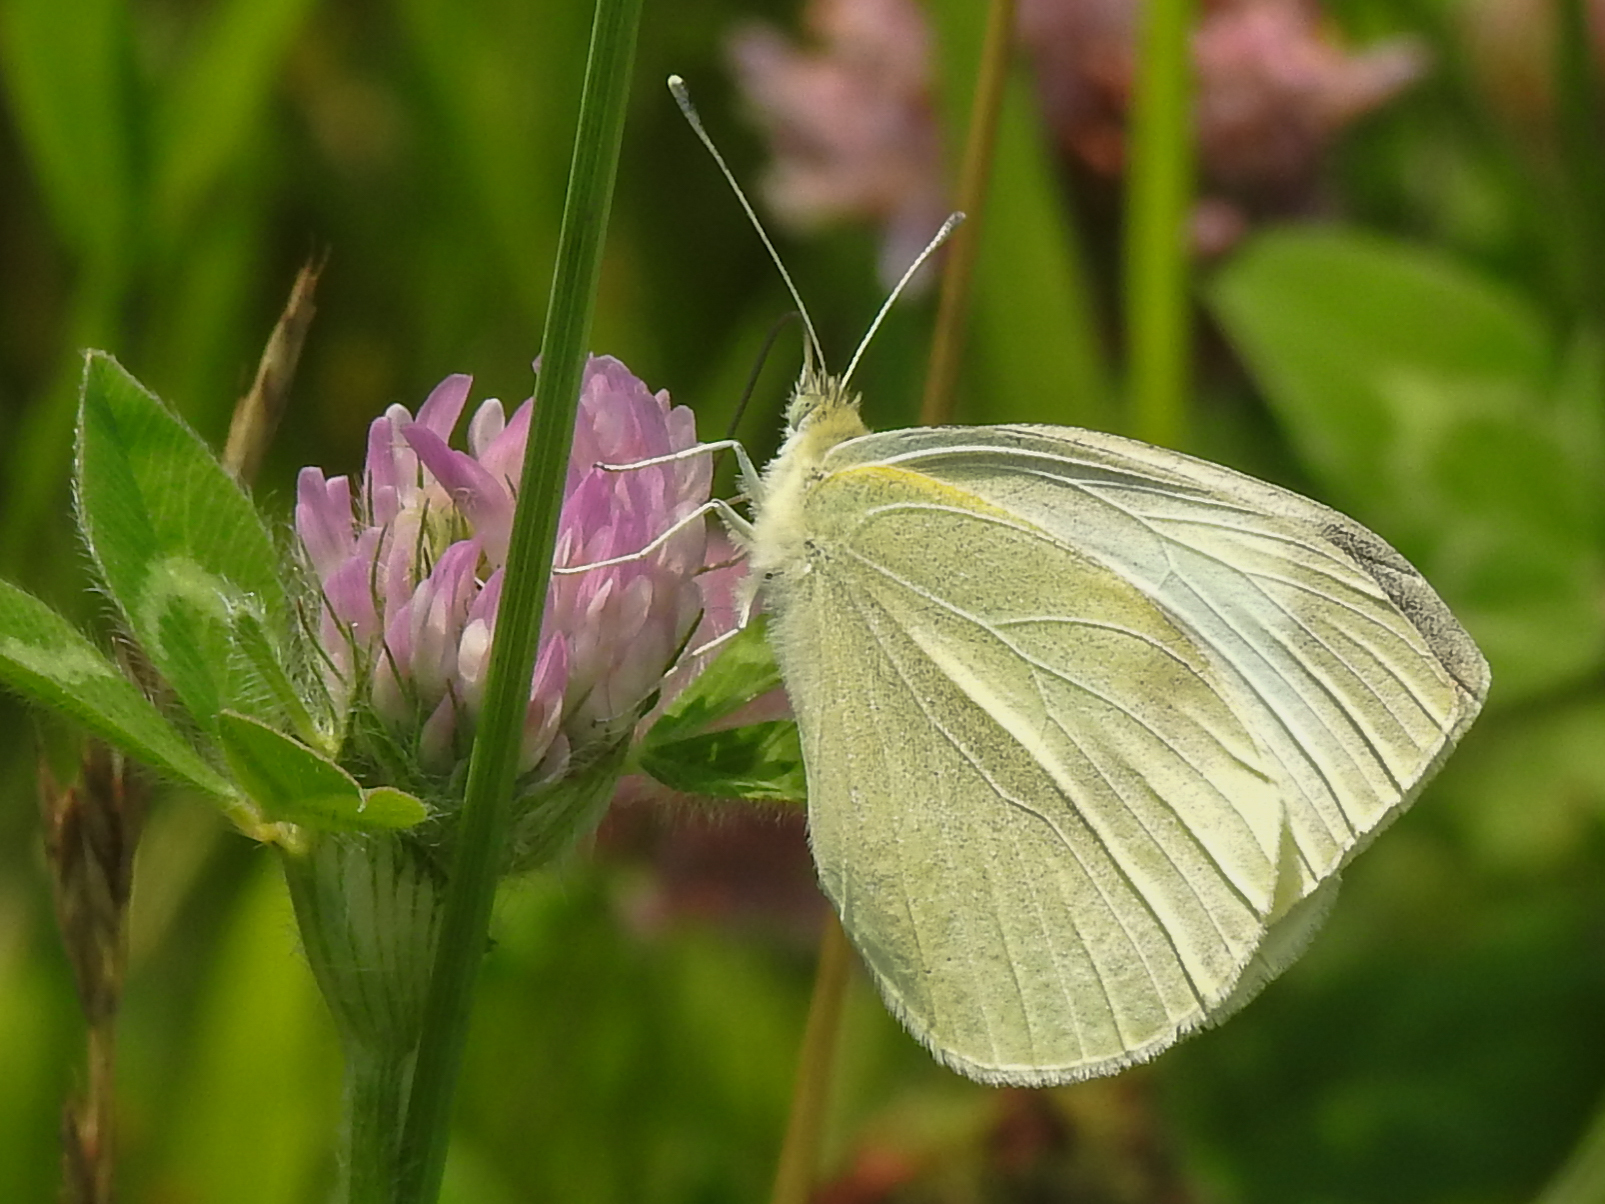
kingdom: Animalia
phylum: Arthropoda
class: Insecta
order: Lepidoptera
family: Pieridae
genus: Pieris
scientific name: Pieris rapae
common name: Small white
